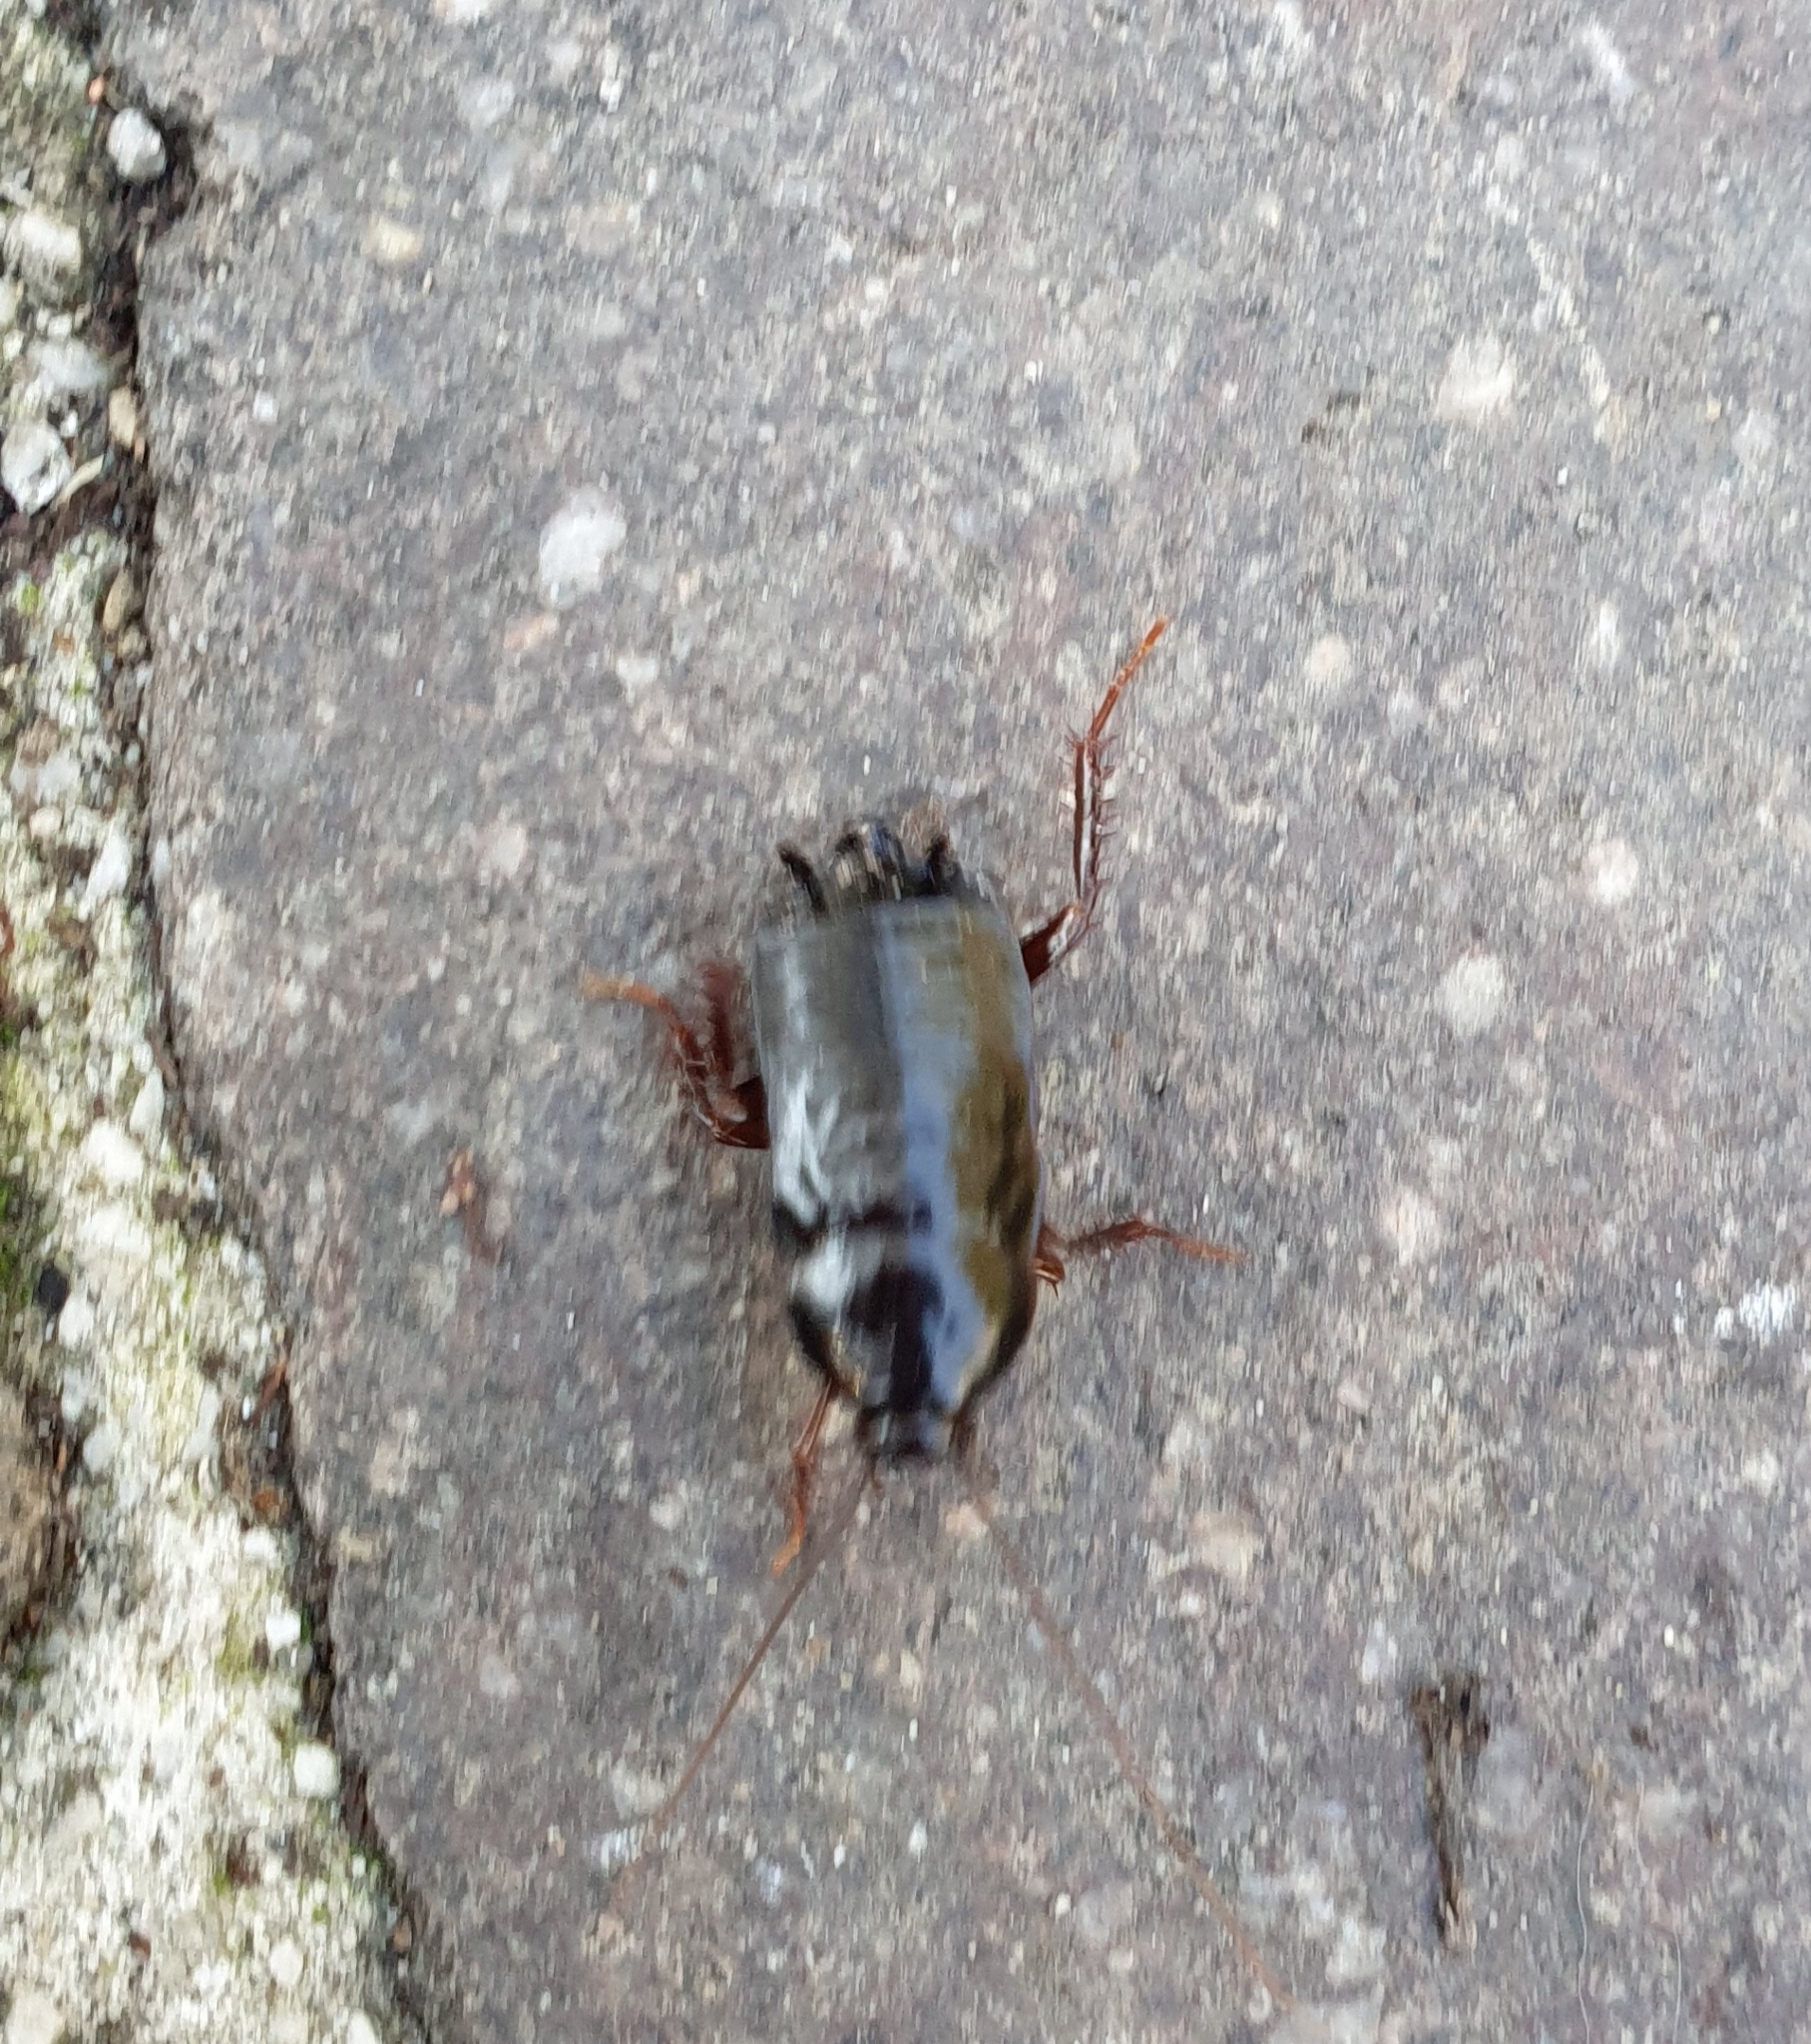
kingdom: Animalia
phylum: Arthropoda
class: Insecta
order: Blattodea
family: Blattidae
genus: Blatta
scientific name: Blatta orientalis
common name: Oriental cockroach
